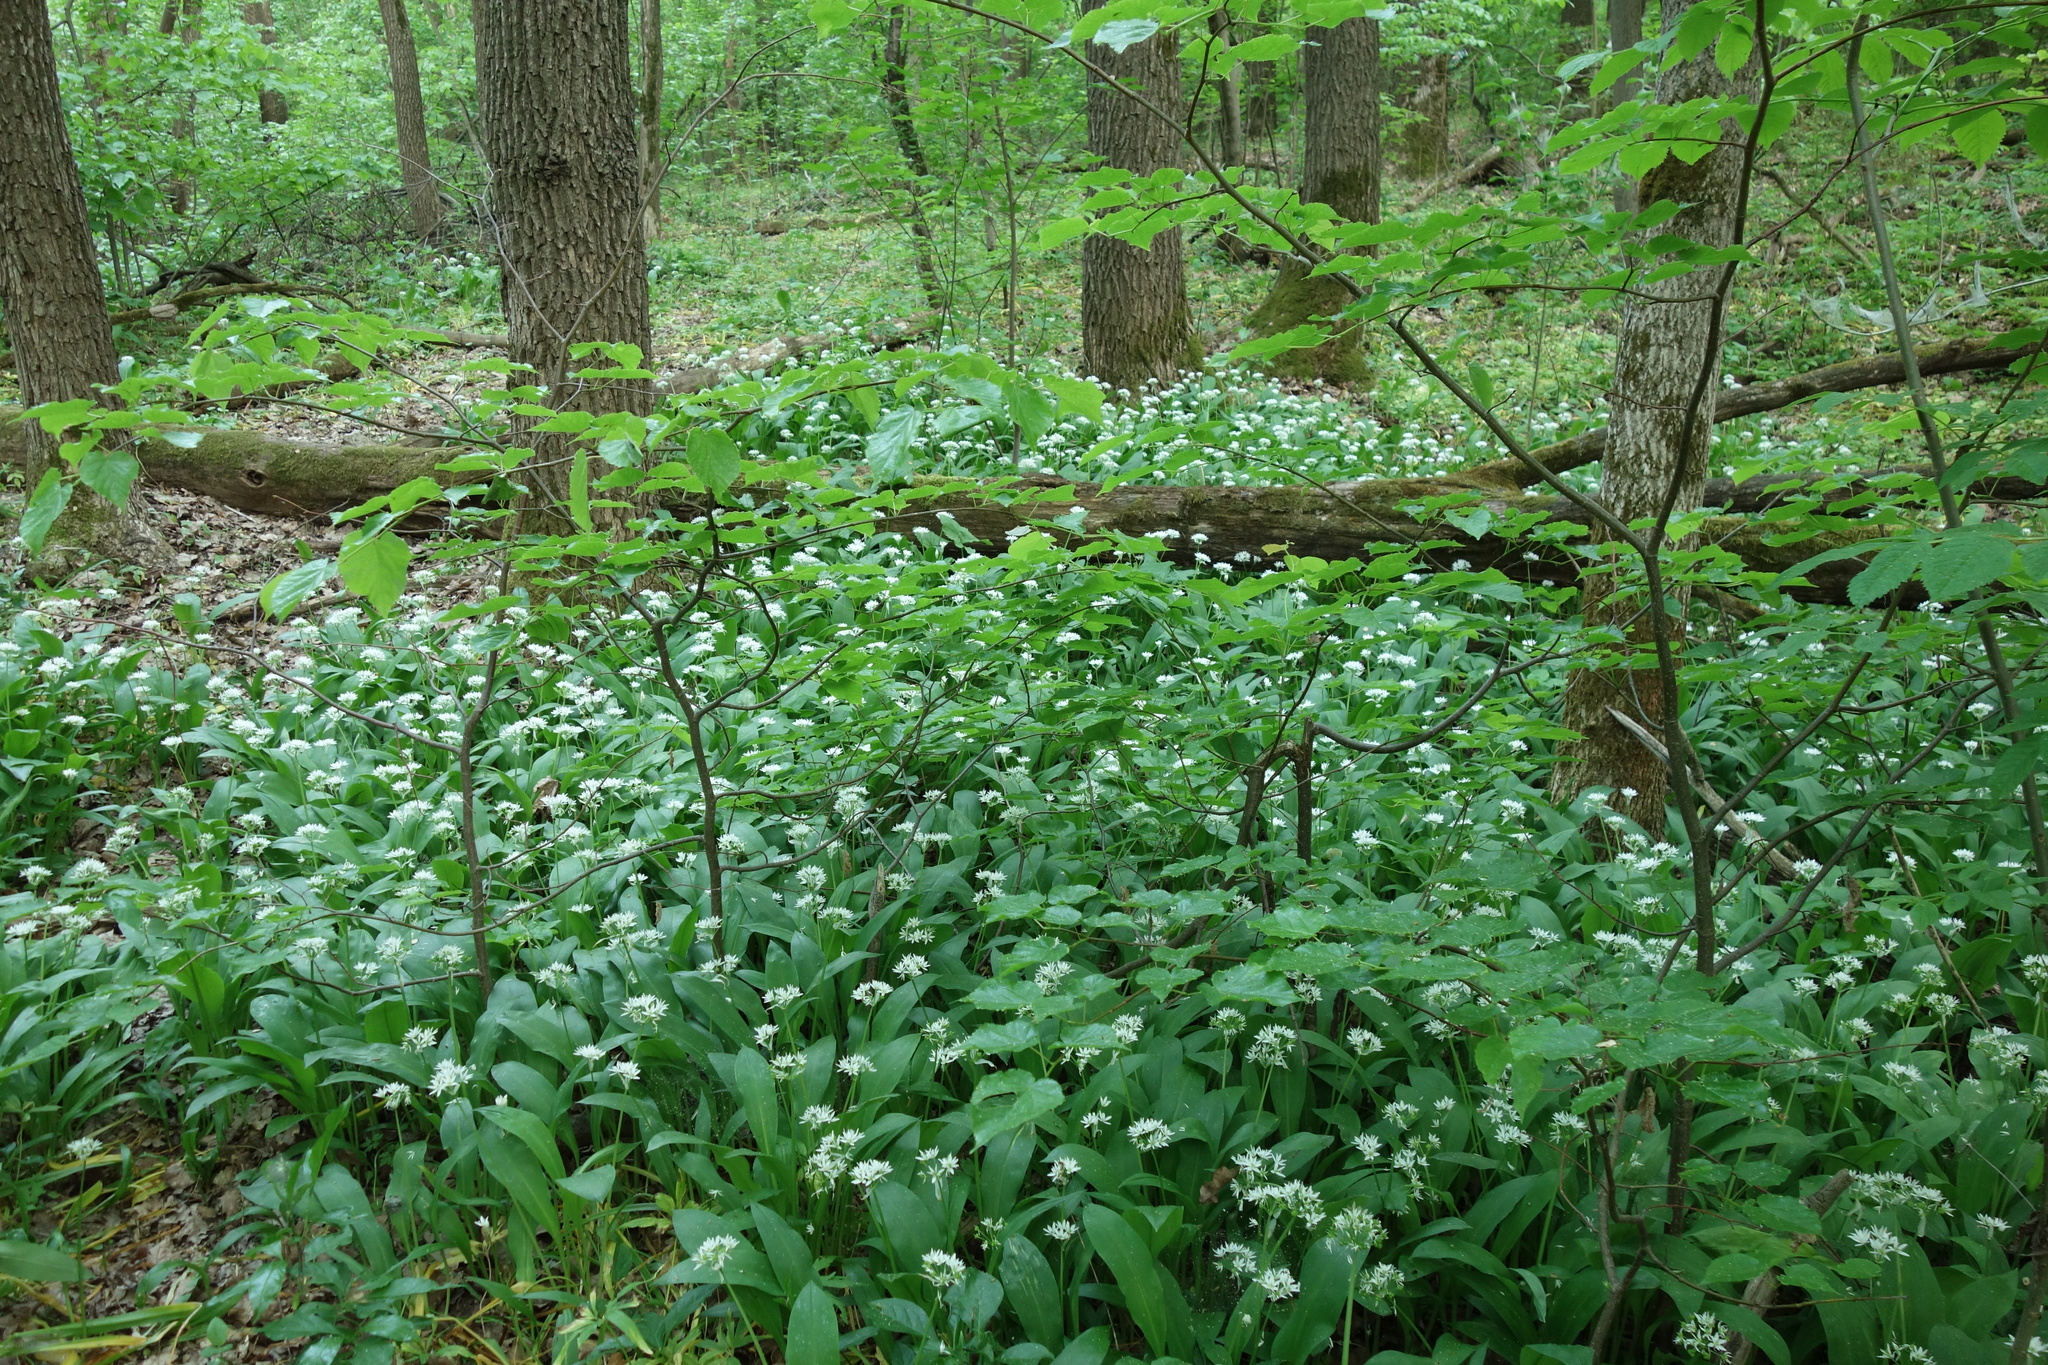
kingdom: Plantae
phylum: Tracheophyta
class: Liliopsida
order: Asparagales
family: Amaryllidaceae
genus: Allium
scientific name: Allium ursinum
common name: Ramsons
